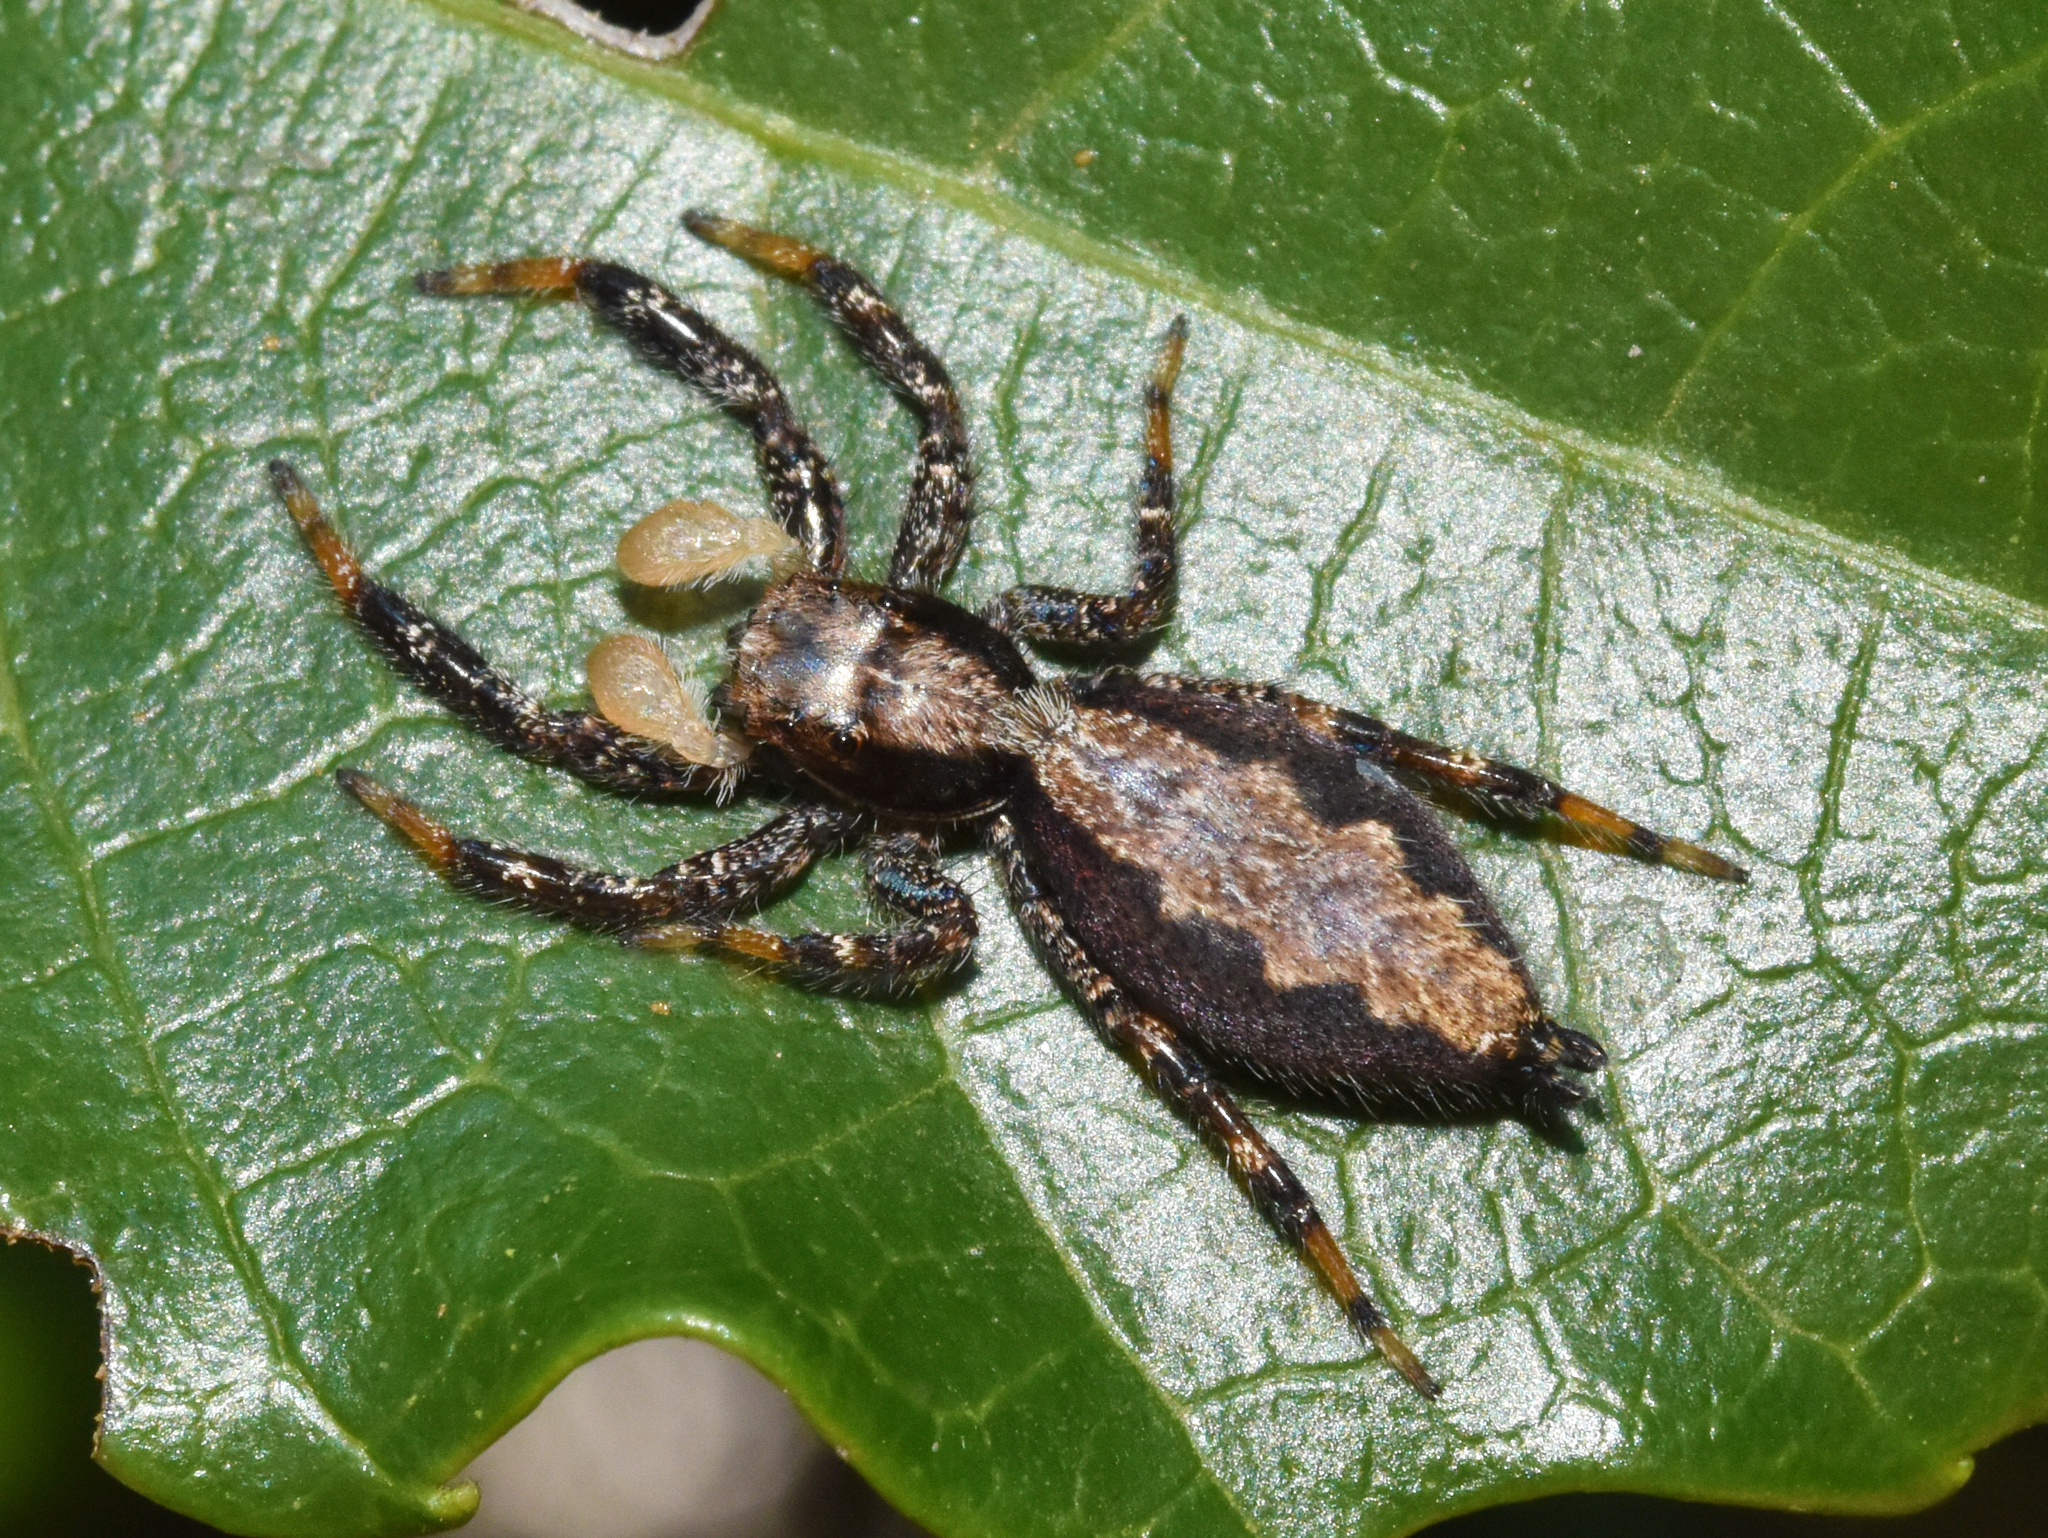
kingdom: Animalia
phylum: Arthropoda
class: Arachnida
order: Araneae
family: Salticidae
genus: Holcolaetis
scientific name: Holcolaetis zuluensis
